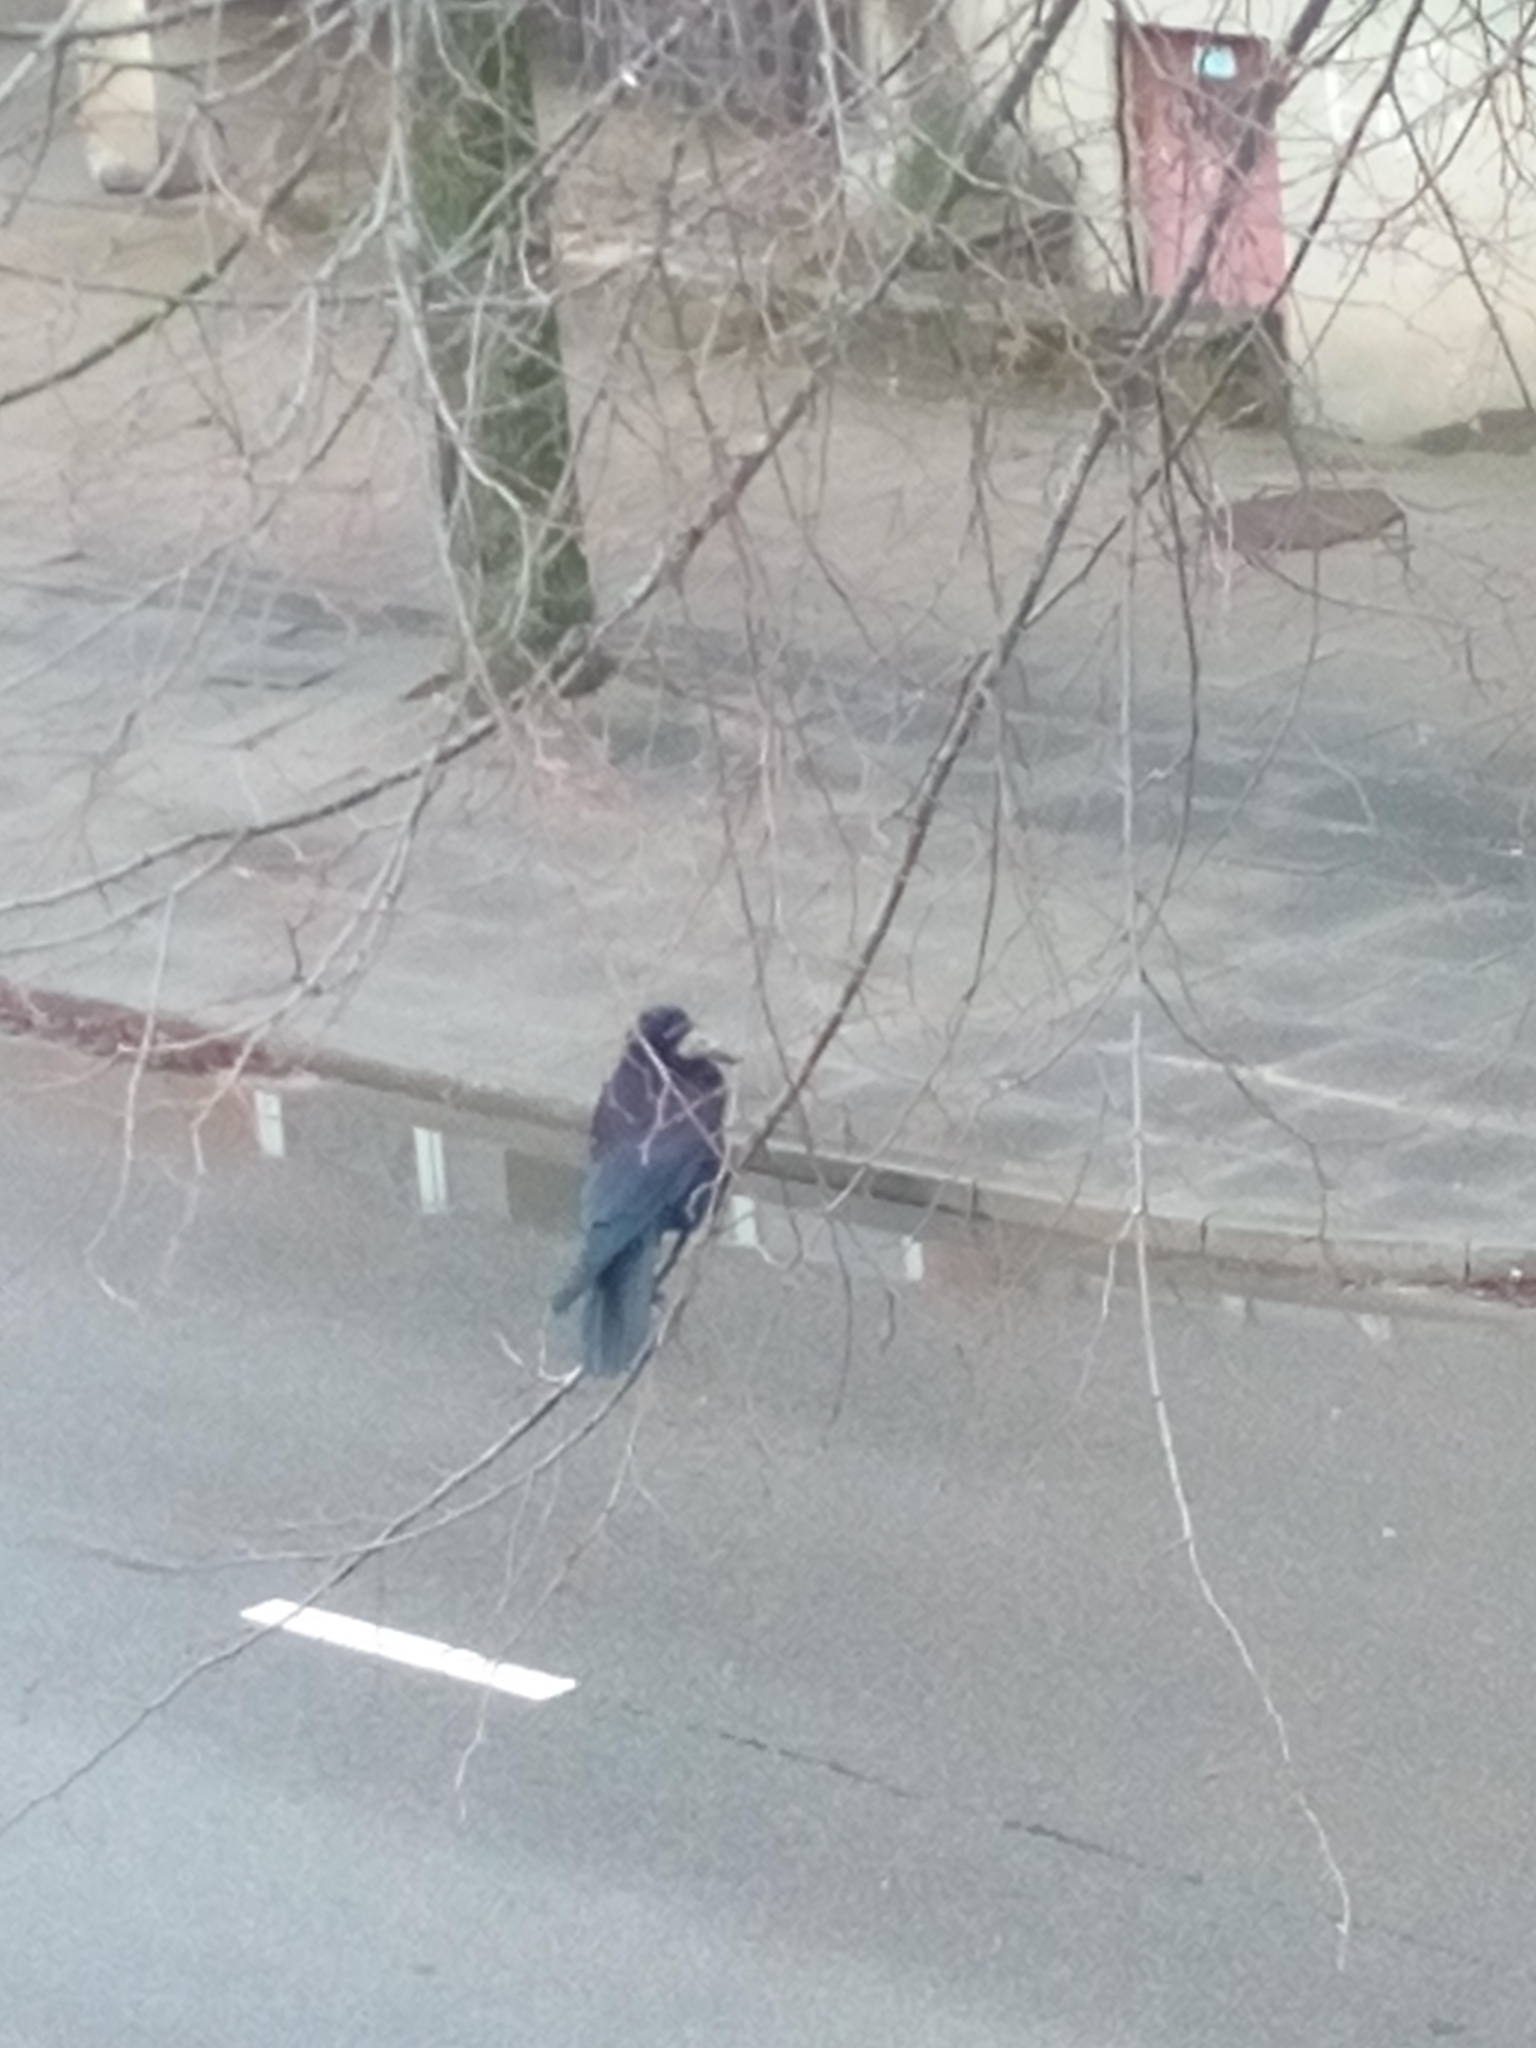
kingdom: Animalia
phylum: Chordata
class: Aves
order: Passeriformes
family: Corvidae
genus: Corvus
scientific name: Corvus frugilegus
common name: Rook
